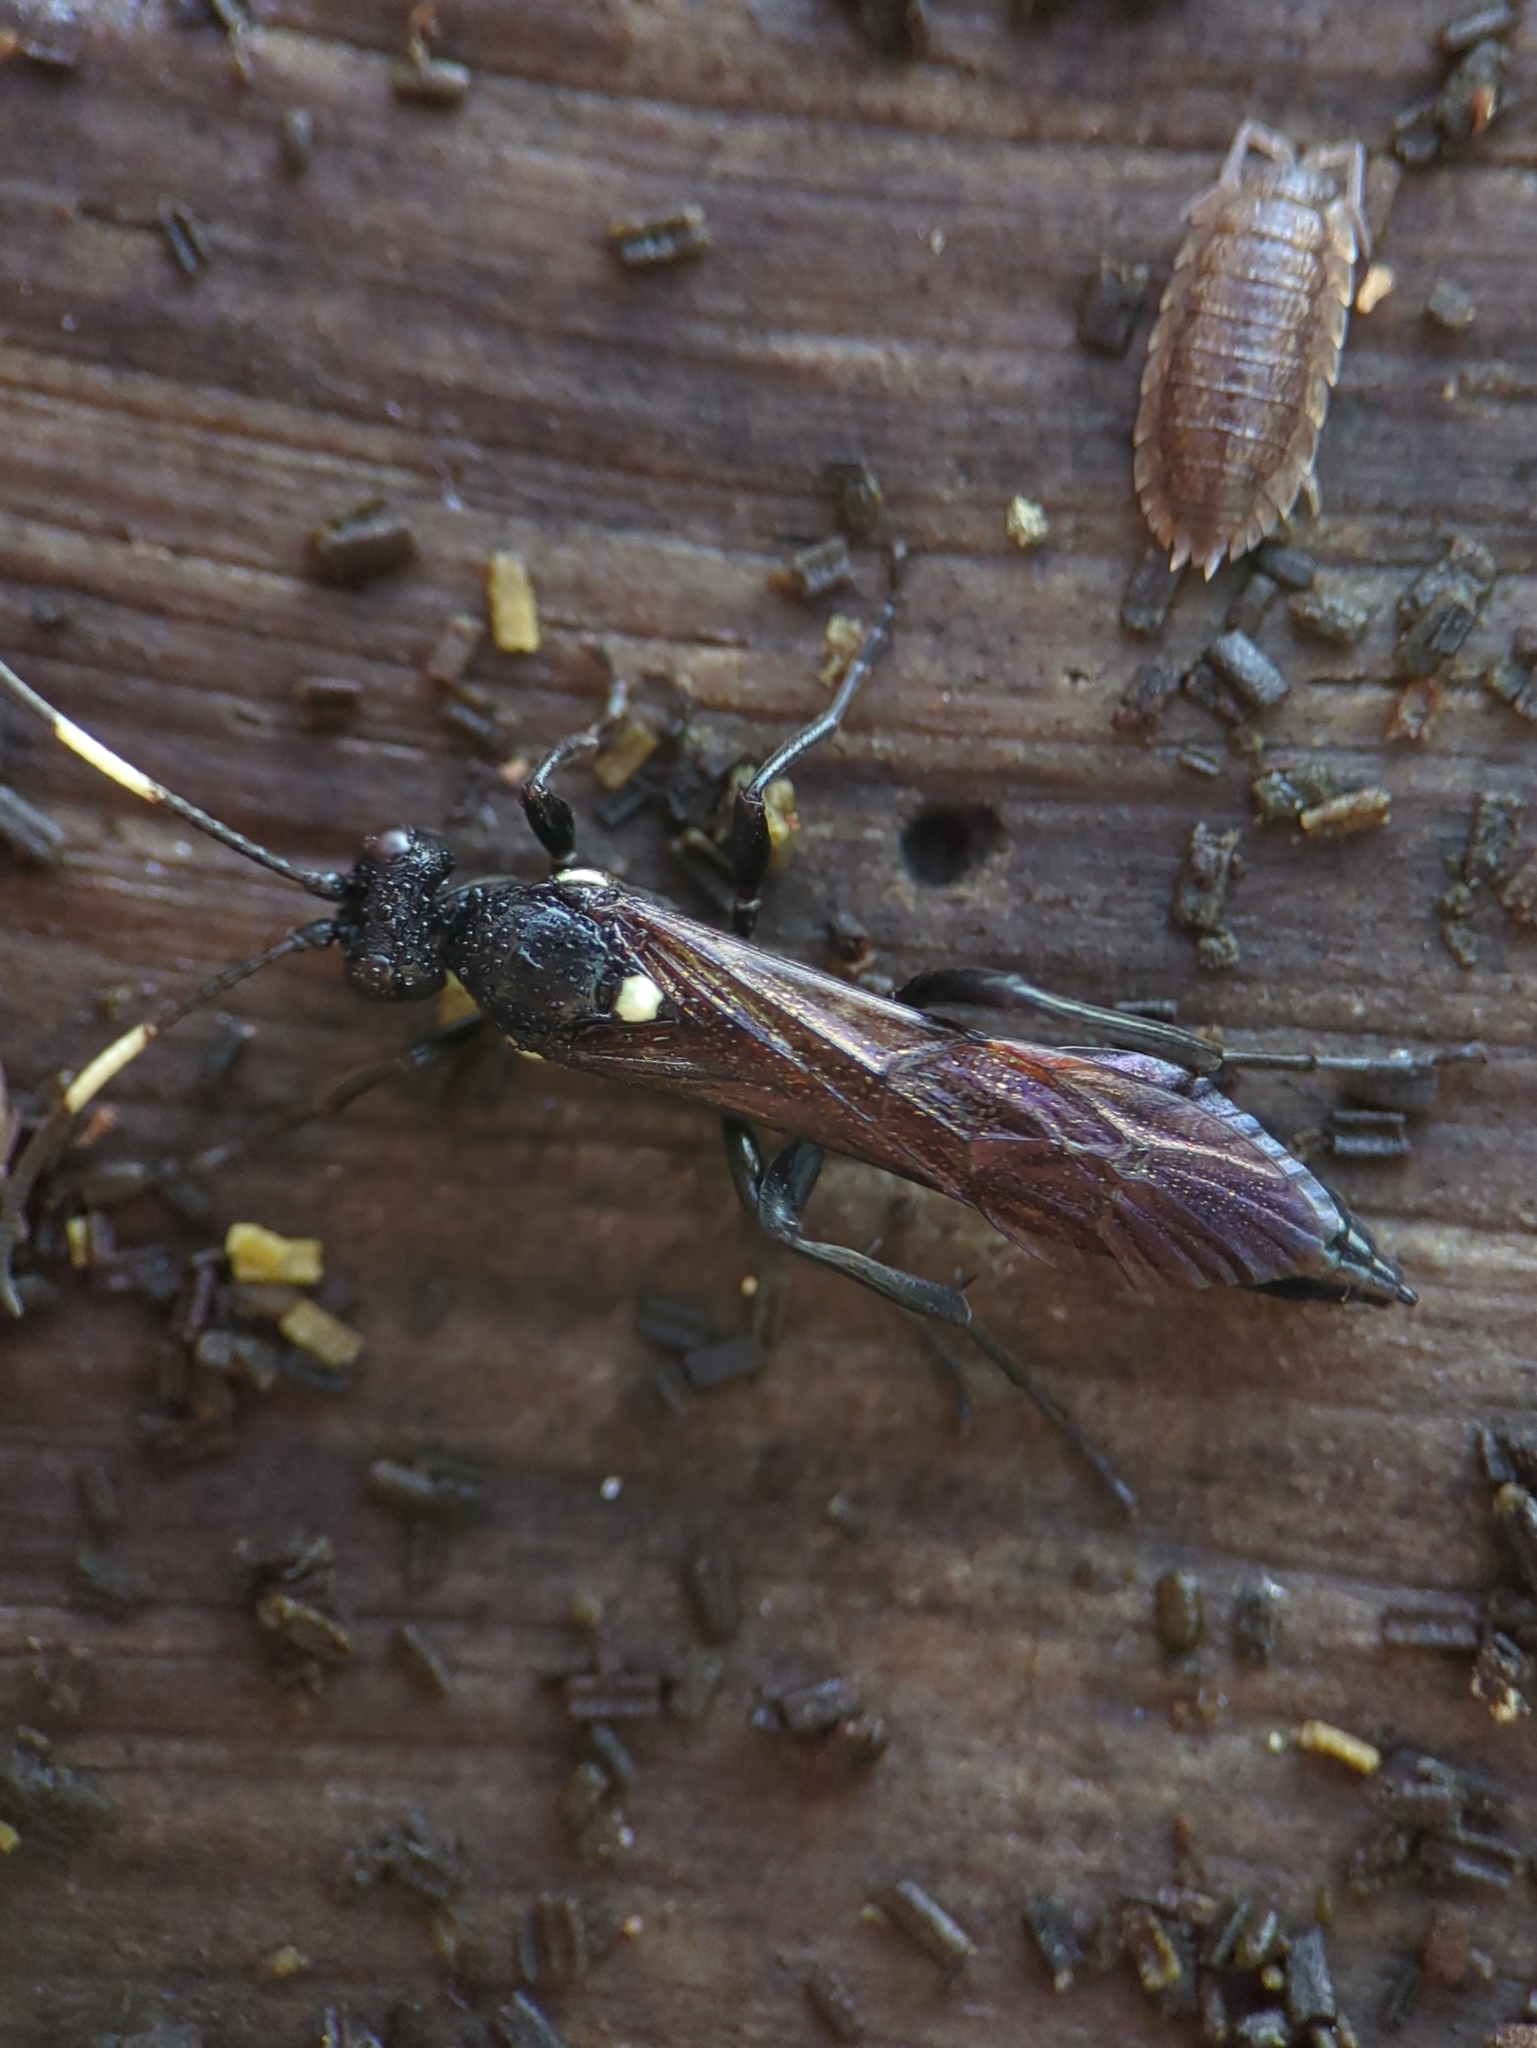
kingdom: Animalia
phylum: Arthropoda
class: Insecta
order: Hymenoptera
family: Ichneumonidae
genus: Ichneumon
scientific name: Ichneumon lugens
